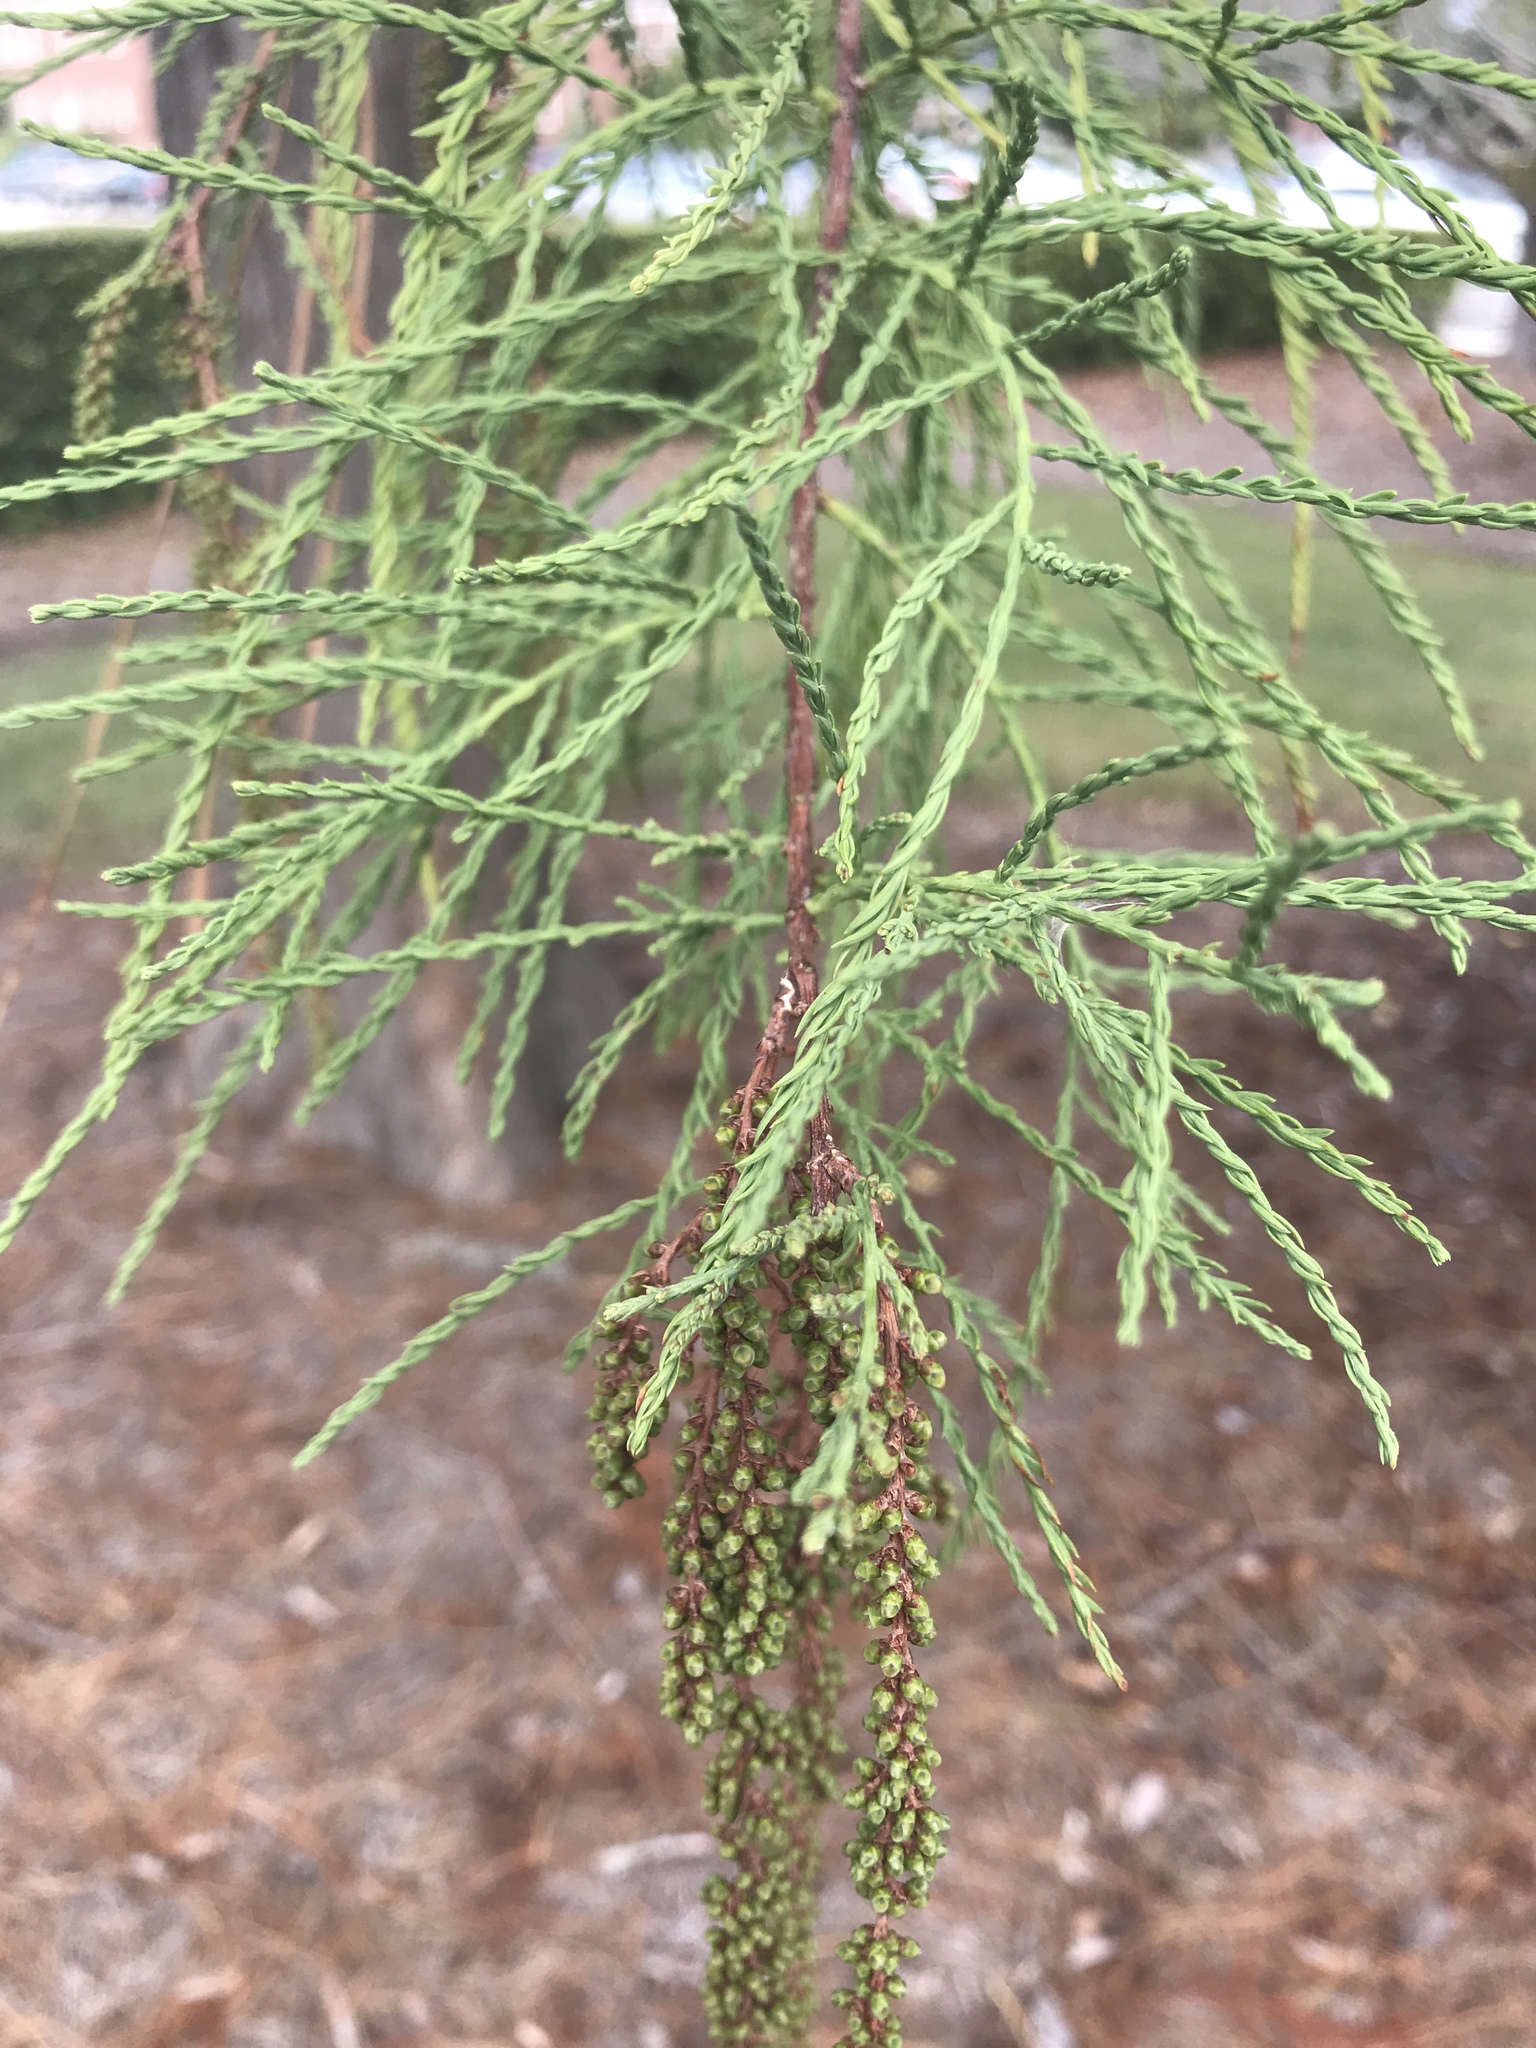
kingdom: Plantae
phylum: Tracheophyta
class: Pinopsida
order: Pinales
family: Cupressaceae
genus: Taxodium
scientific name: Taxodium distichum
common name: Bald cypress
